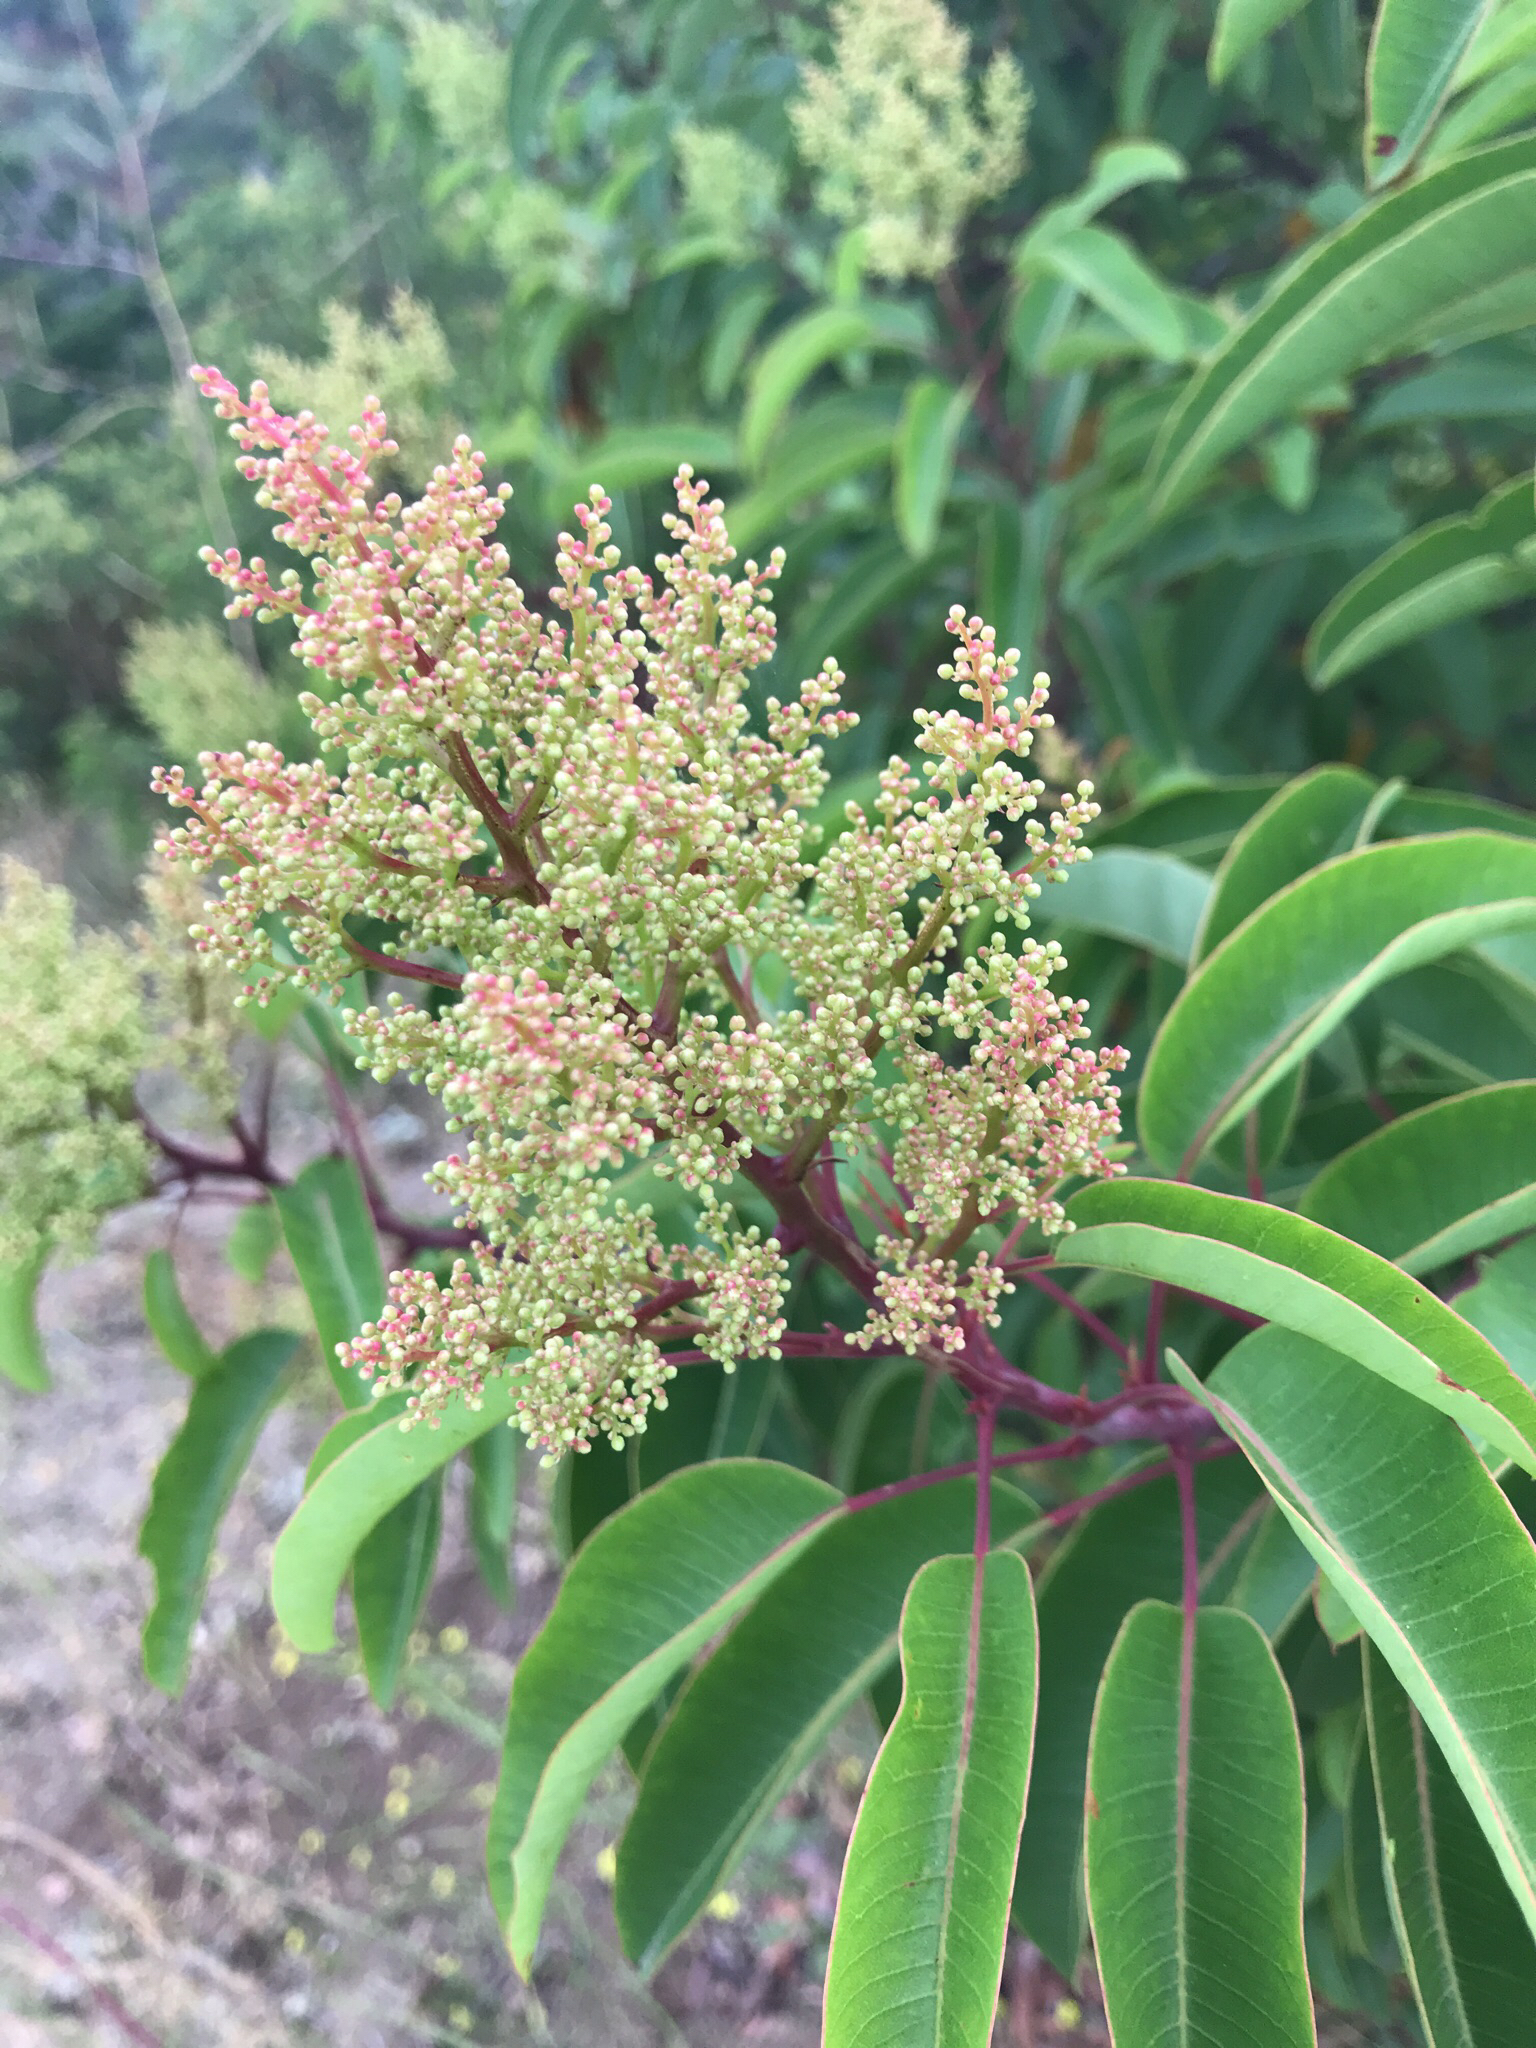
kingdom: Plantae
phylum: Tracheophyta
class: Magnoliopsida
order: Sapindales
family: Anacardiaceae
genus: Malosma
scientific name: Malosma laurina
